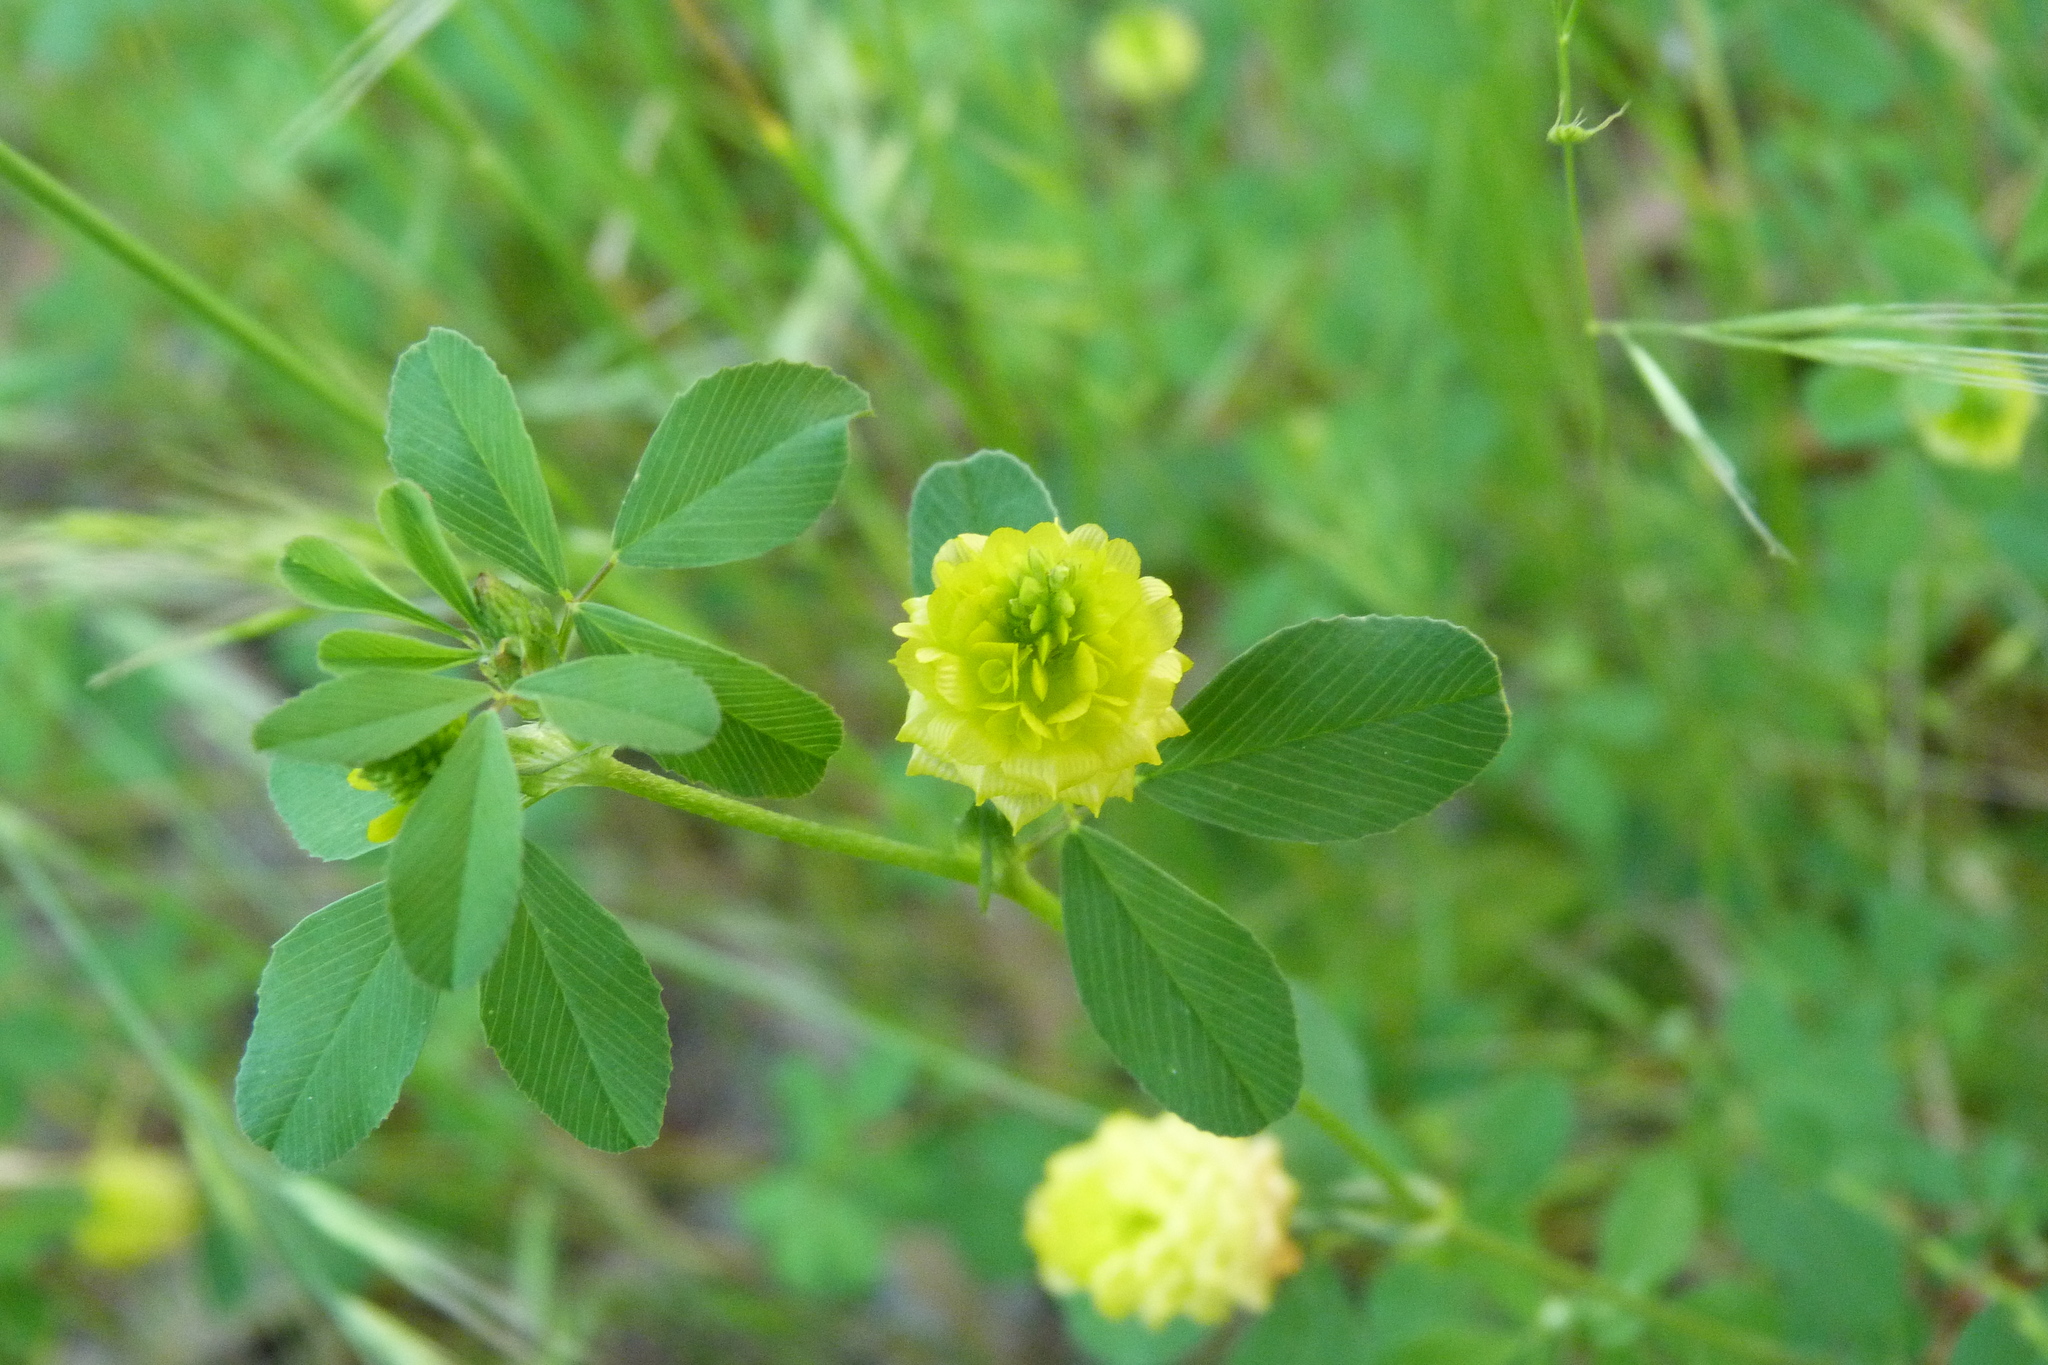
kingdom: Plantae
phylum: Tracheophyta
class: Magnoliopsida
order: Fabales
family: Fabaceae
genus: Trifolium
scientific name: Trifolium campestre
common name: Field clover
